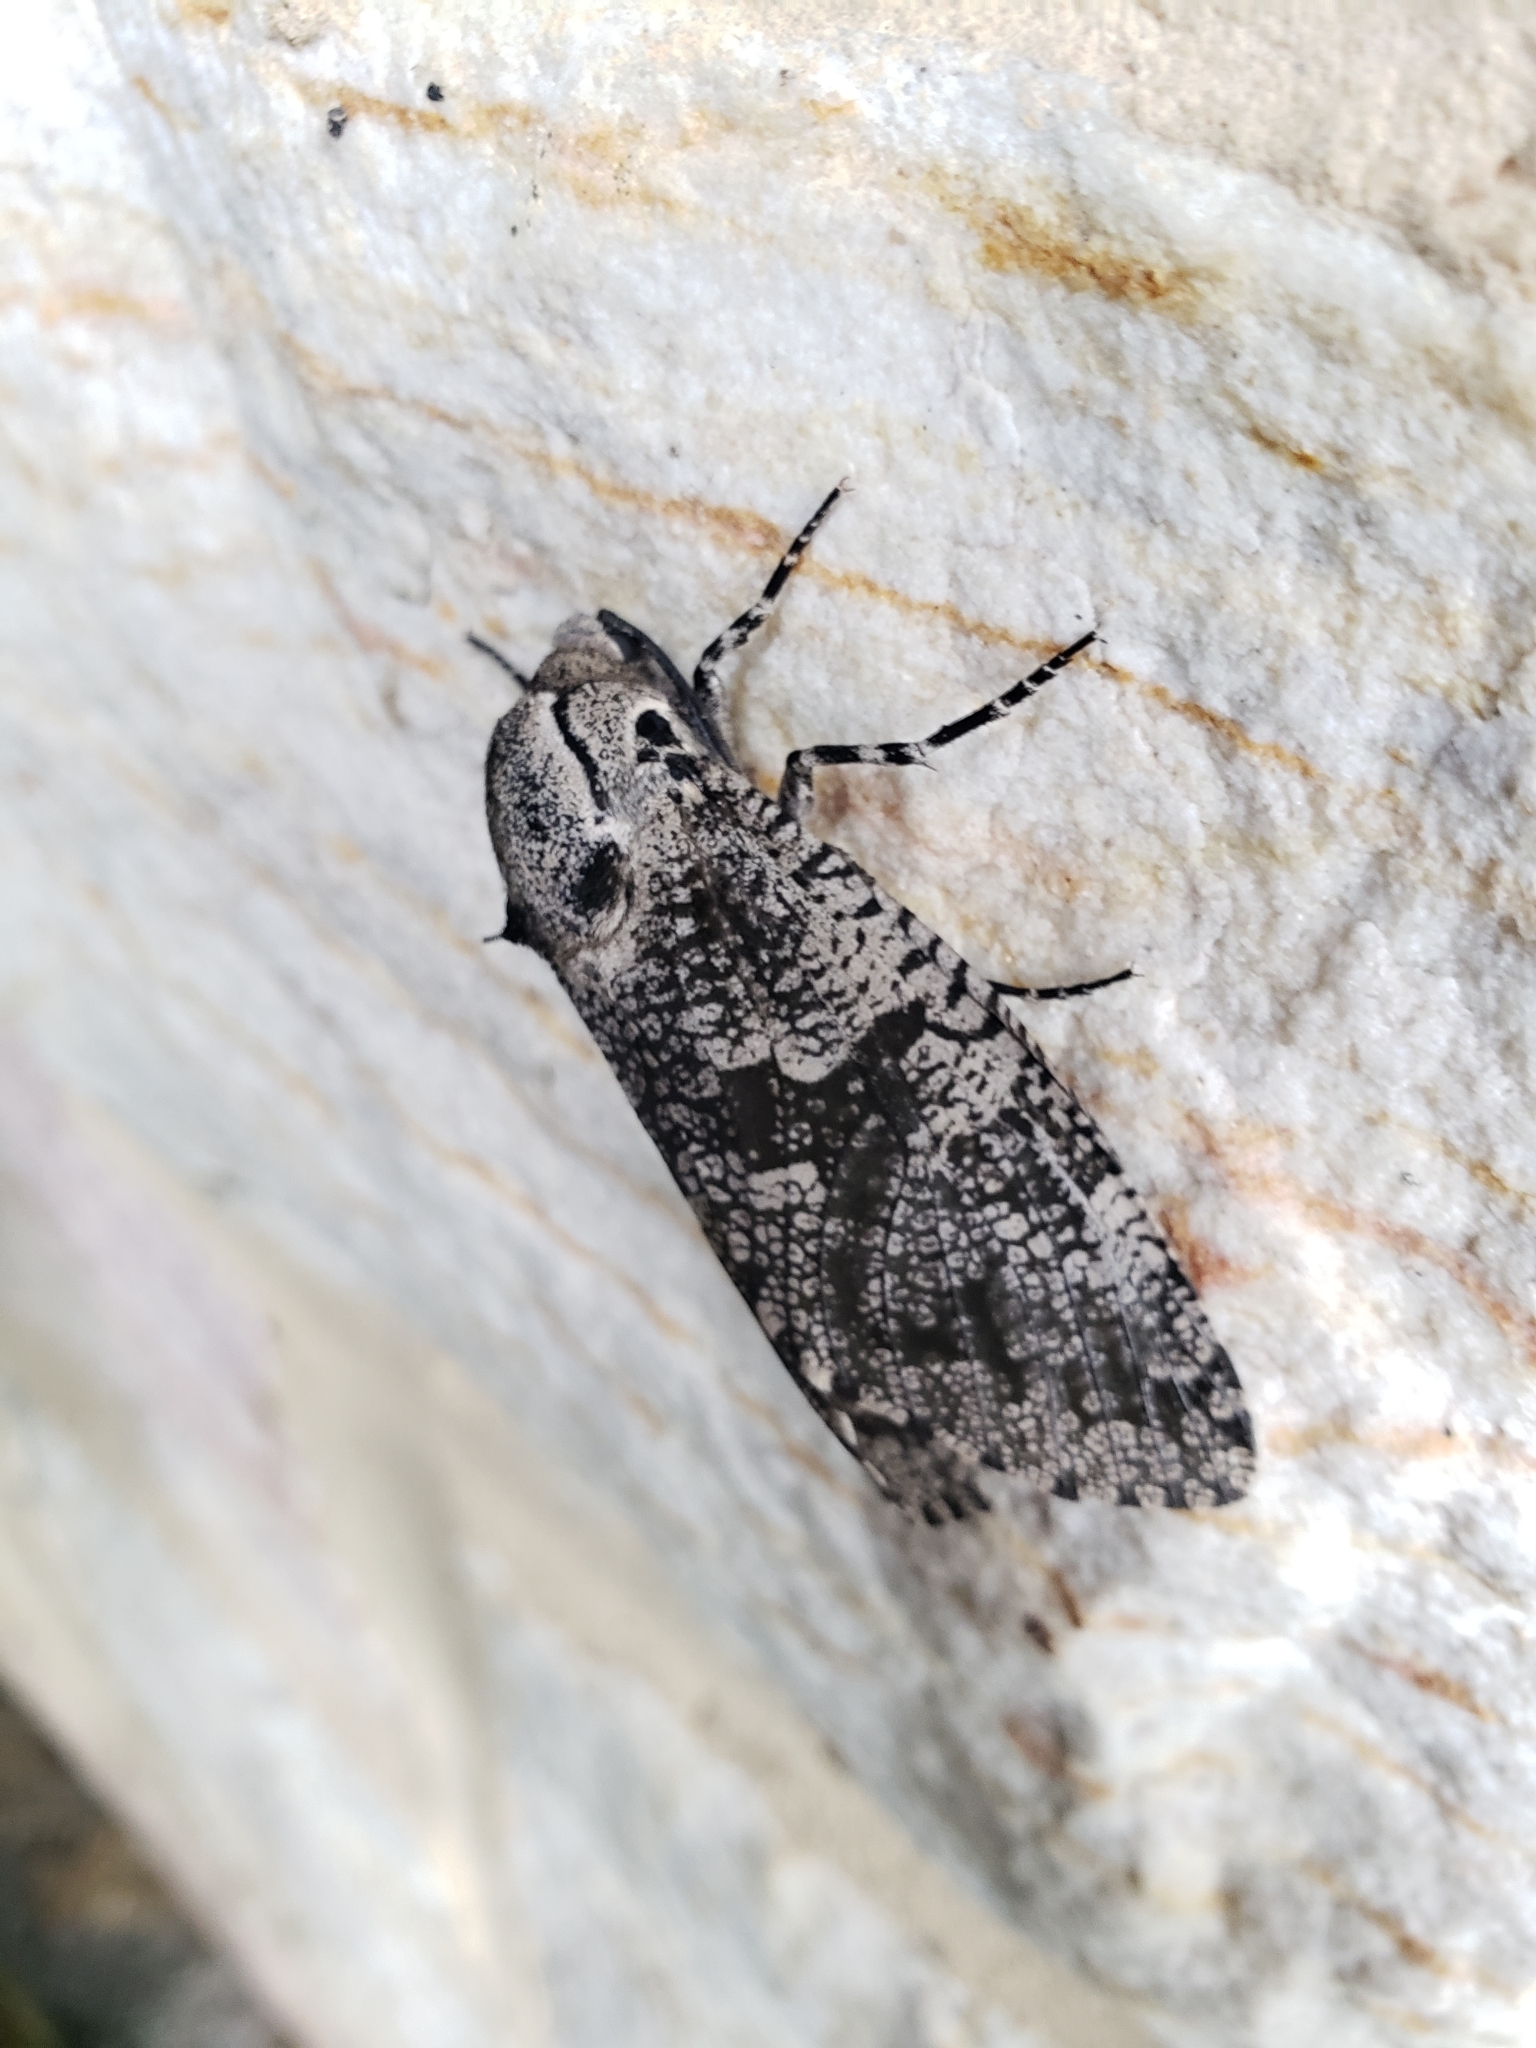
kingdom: Animalia
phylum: Arthropoda
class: Insecta
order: Lepidoptera
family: Cossidae
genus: Prionoxystus
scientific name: Prionoxystus robiniae
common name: Carpenterworm
